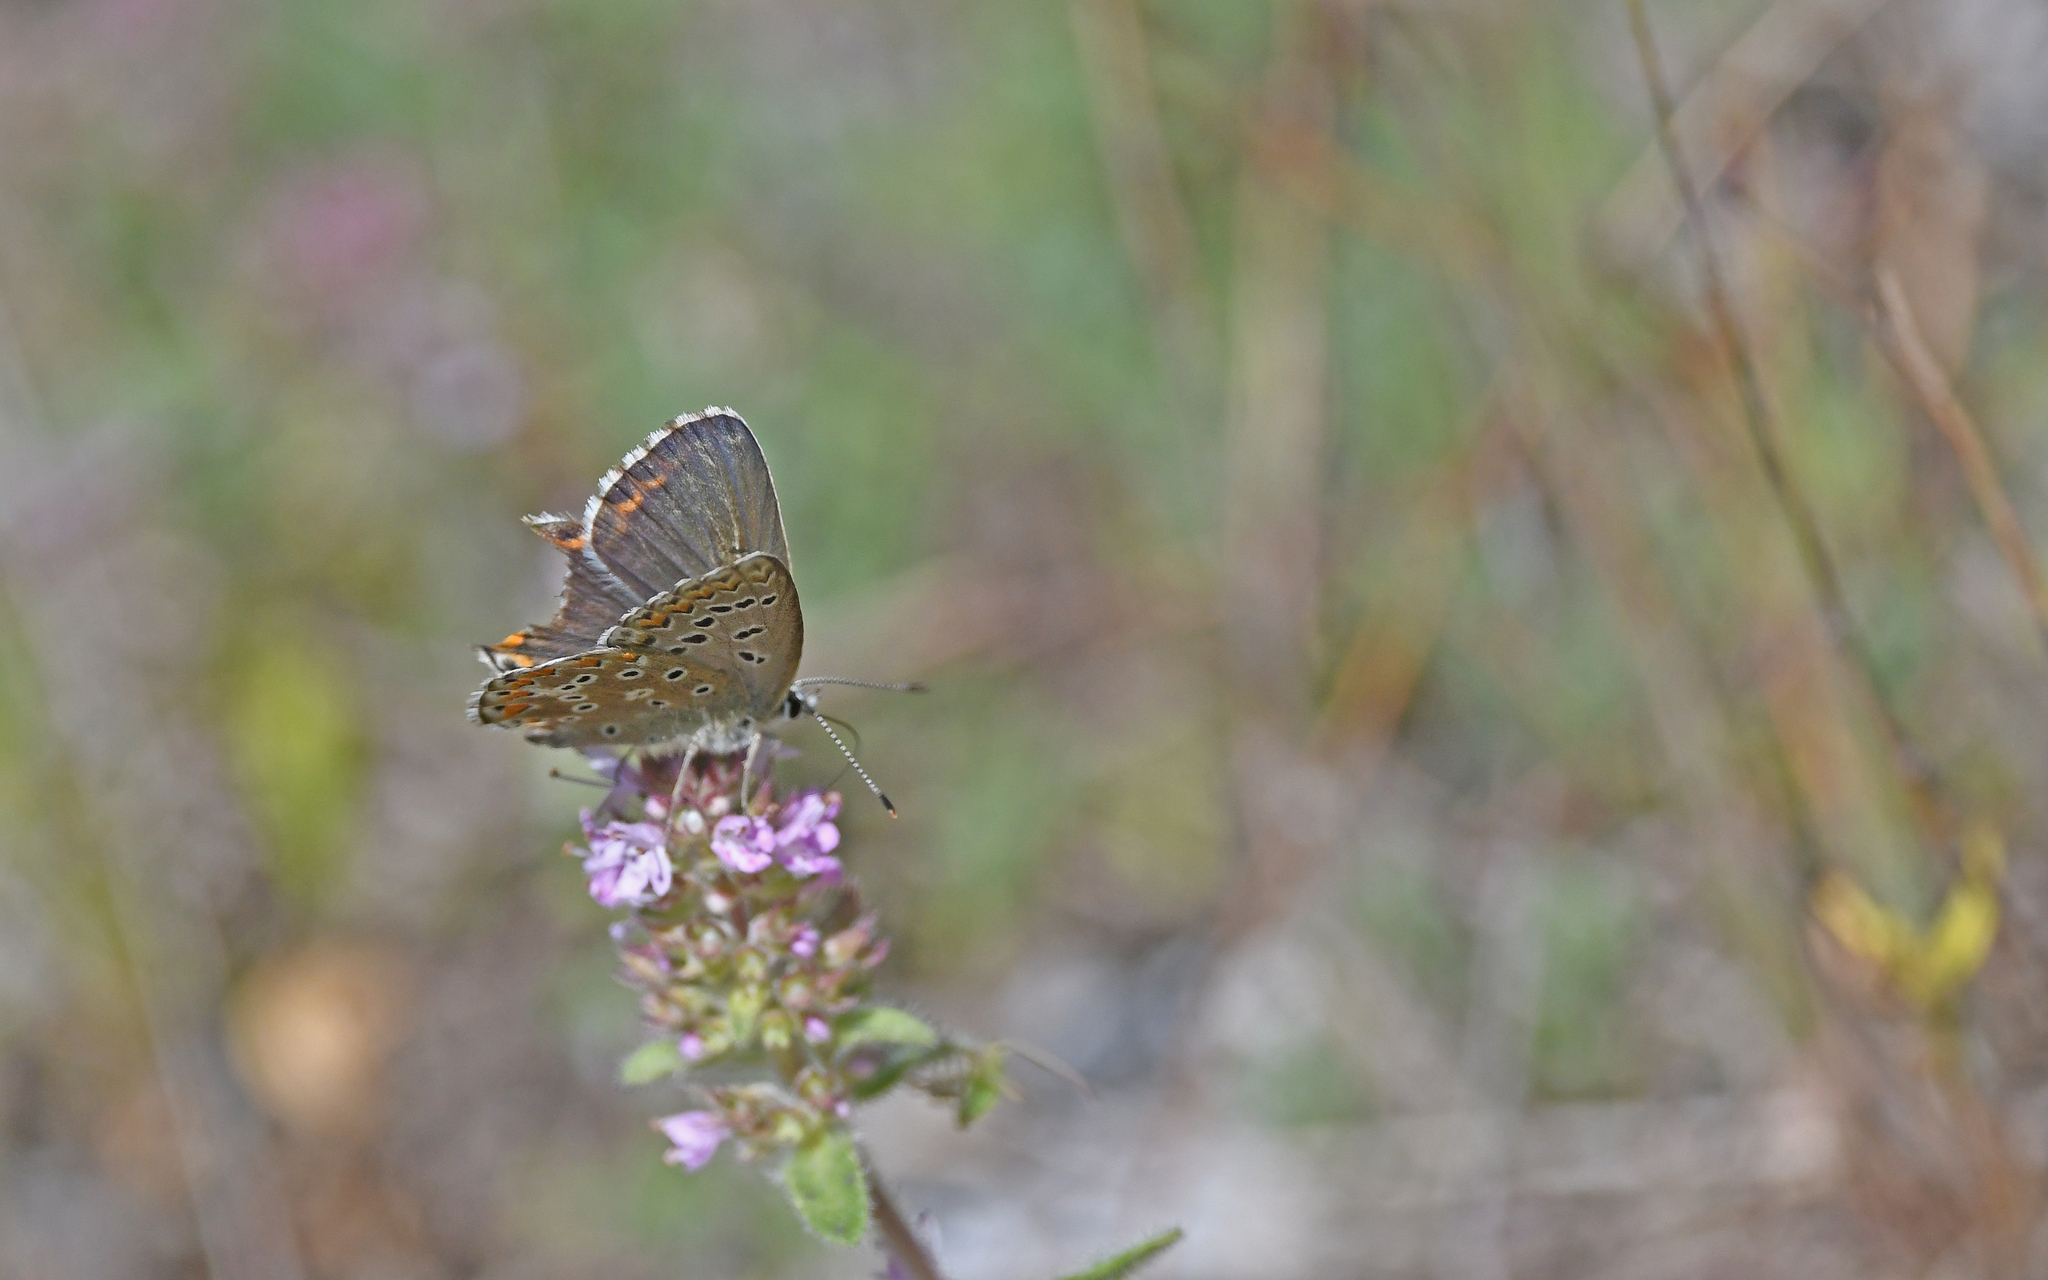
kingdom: Animalia
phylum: Arthropoda
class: Insecta
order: Lepidoptera
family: Lycaenidae
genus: Lysandra
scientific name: Lysandra bellargus
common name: Adonis blue
